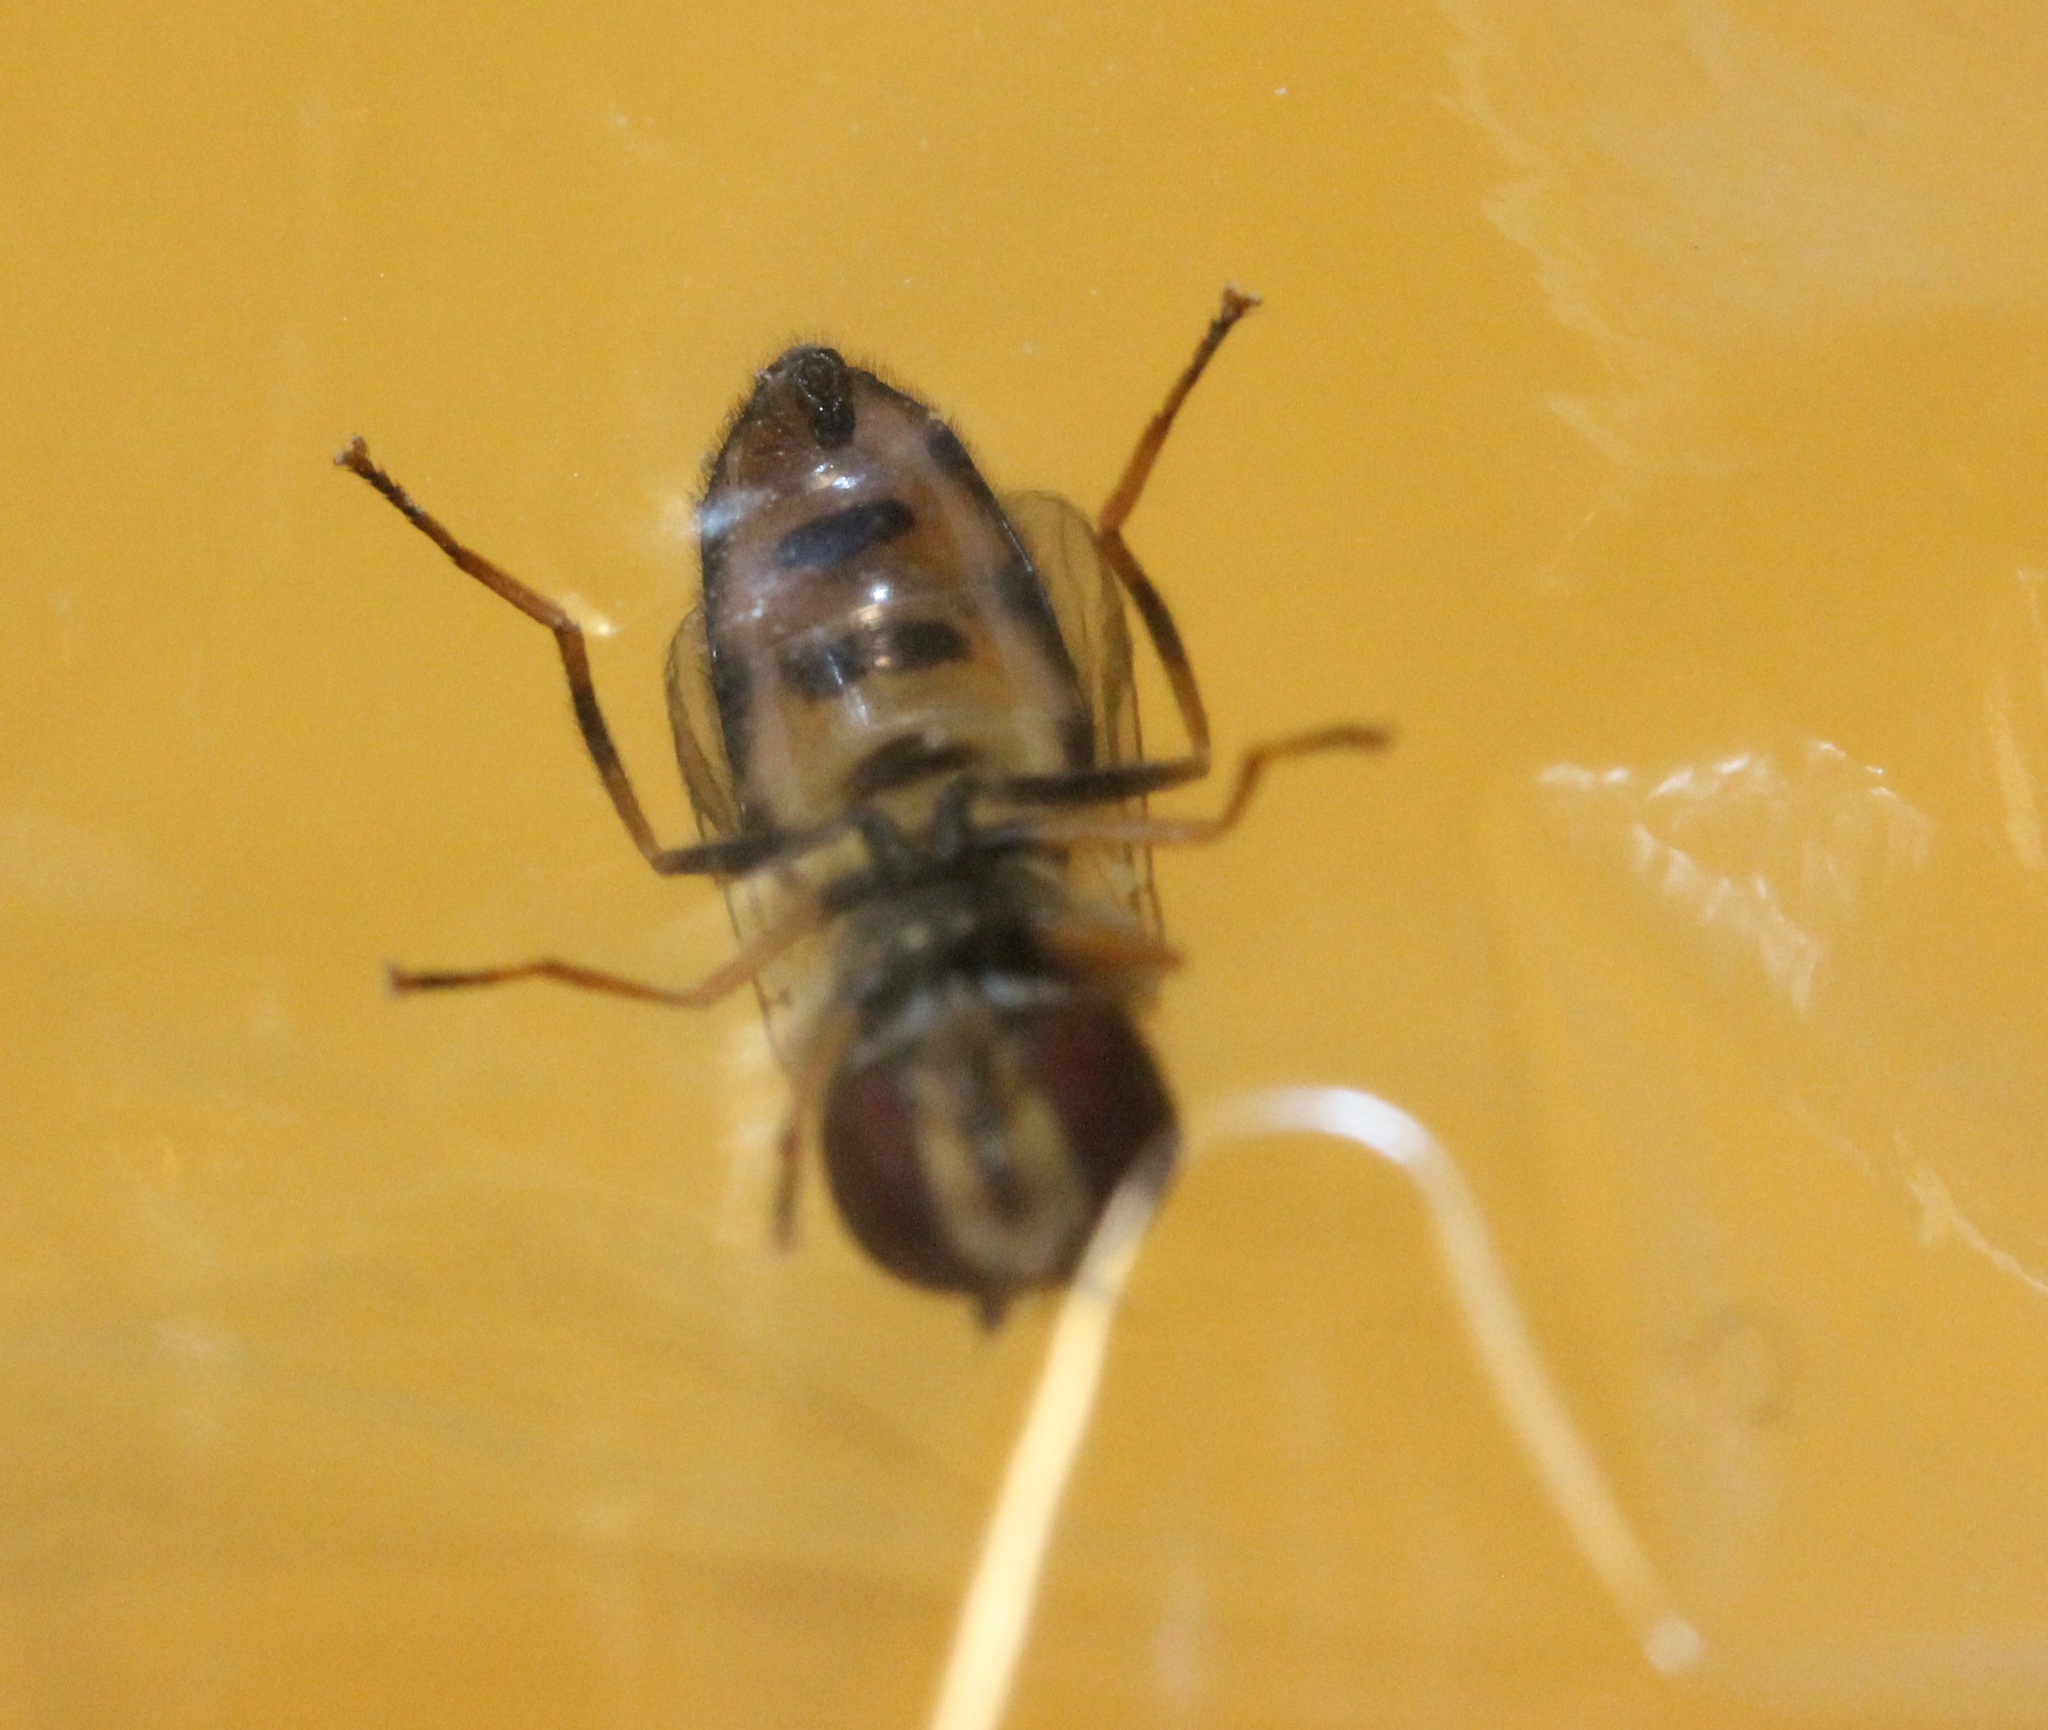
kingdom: Animalia
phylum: Arthropoda
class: Insecta
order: Diptera
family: Syrphidae
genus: Eupeodes
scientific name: Eupeodes americanus
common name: Long-tailed aphideater
